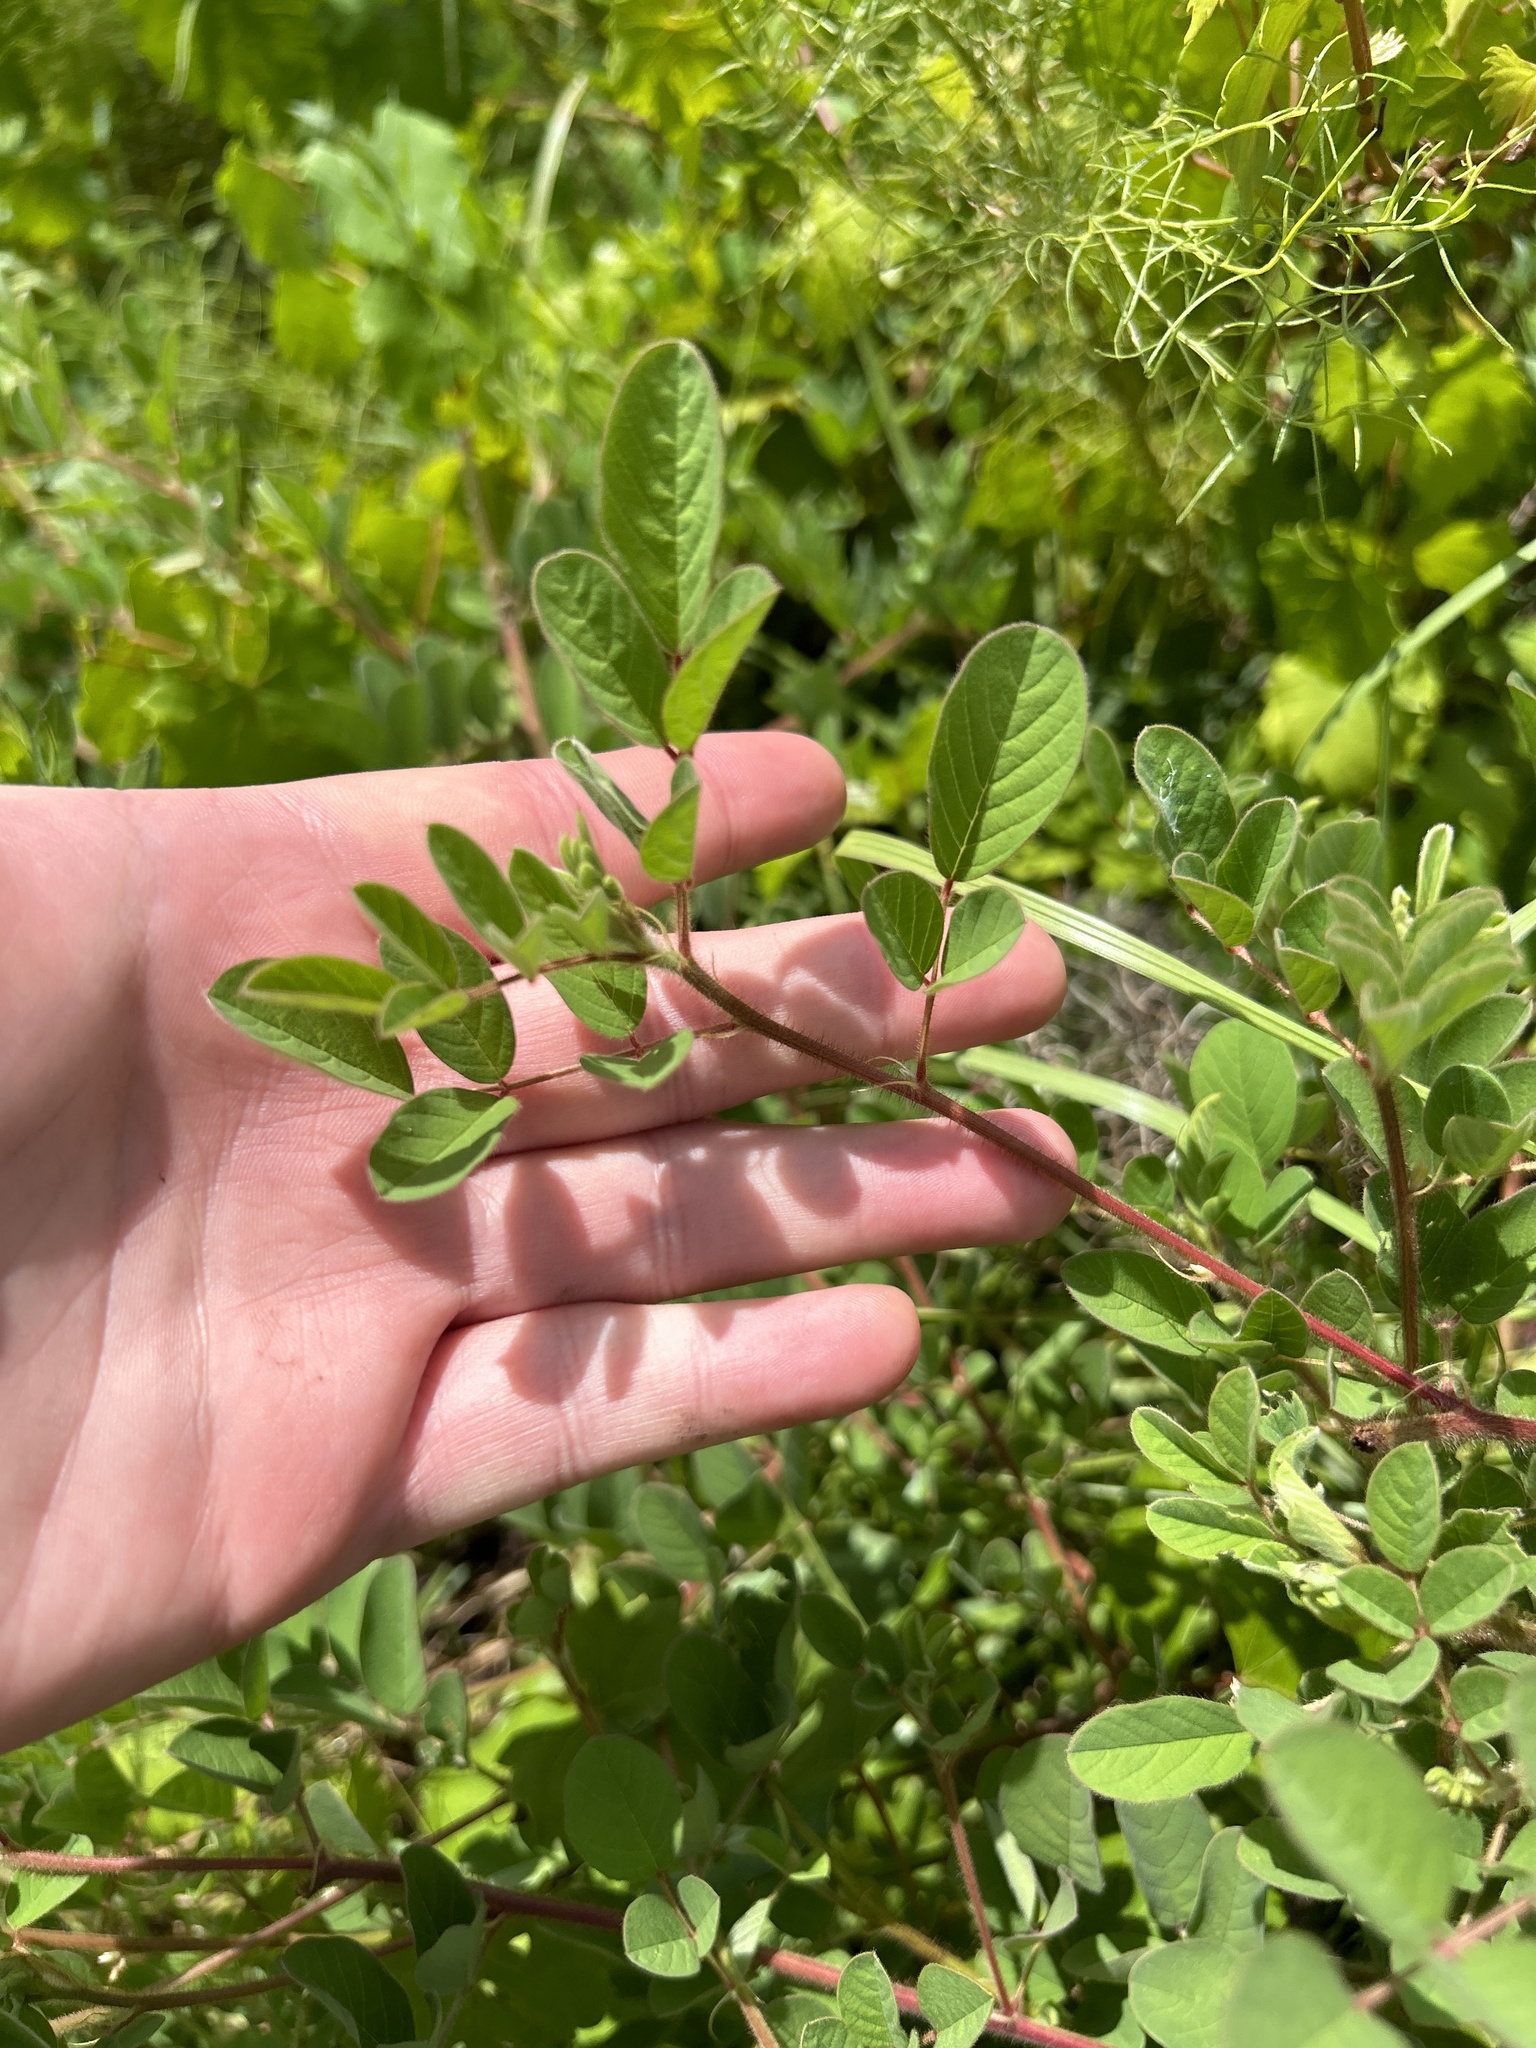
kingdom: Plantae
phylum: Tracheophyta
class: Magnoliopsida
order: Fabales
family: Fabaceae
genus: Indigofera
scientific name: Indigofera hirsuta
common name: Hairy indigo
